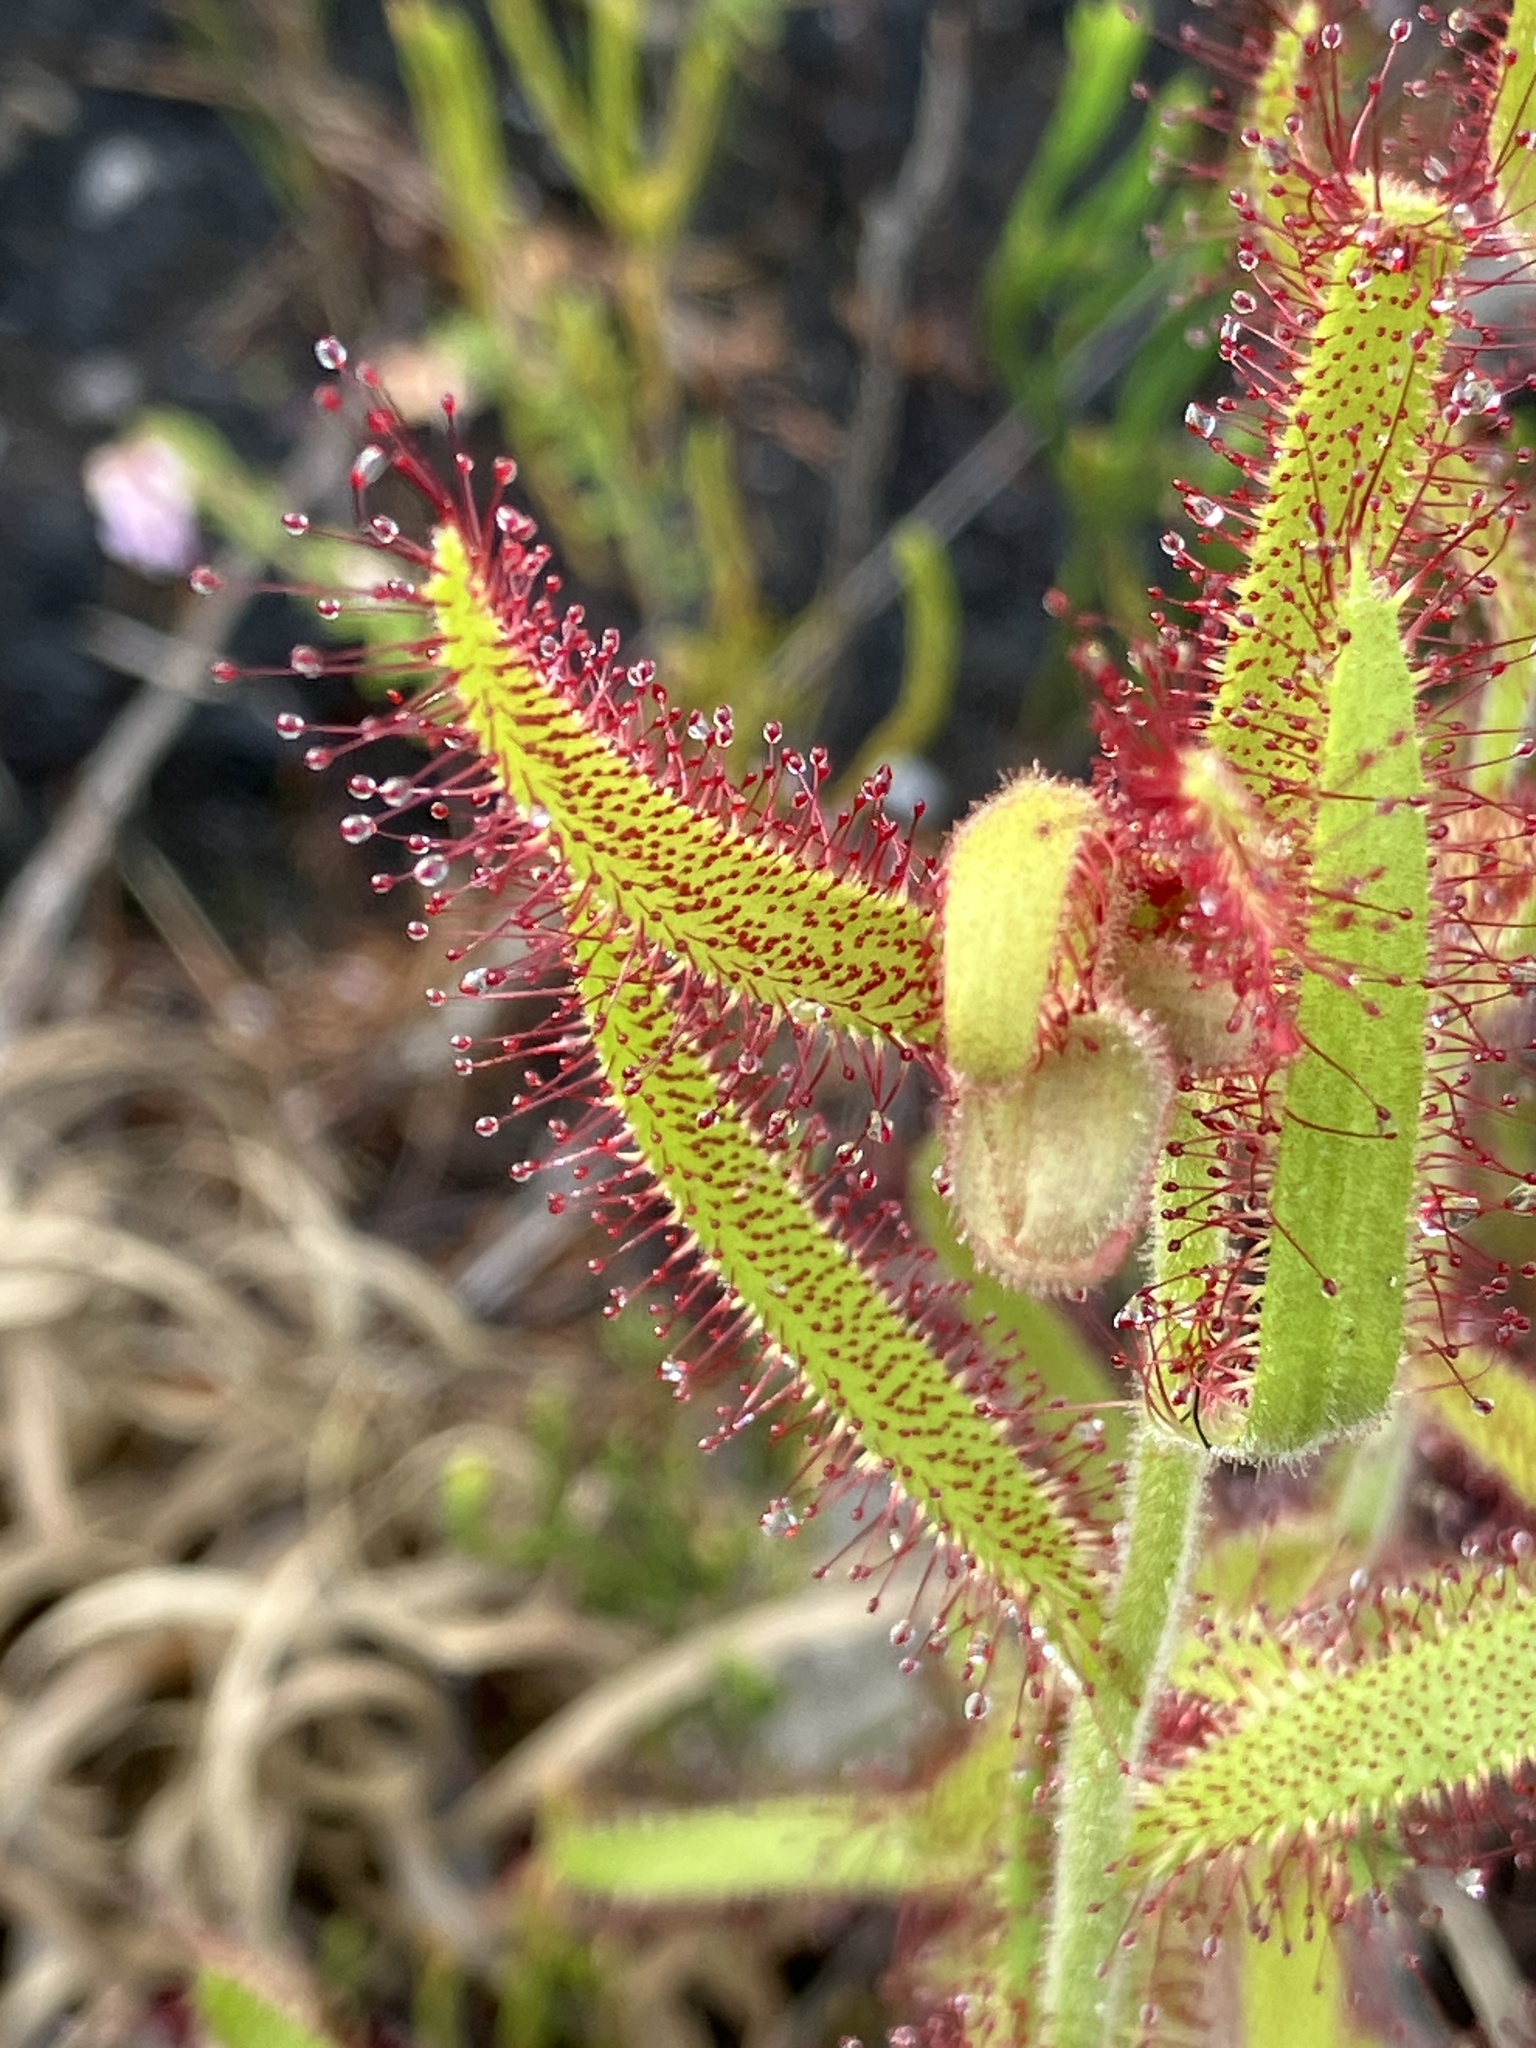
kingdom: Plantae
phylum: Tracheophyta
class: Magnoliopsida
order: Caryophyllales
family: Droseraceae
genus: Drosera
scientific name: Drosera cistiflora
